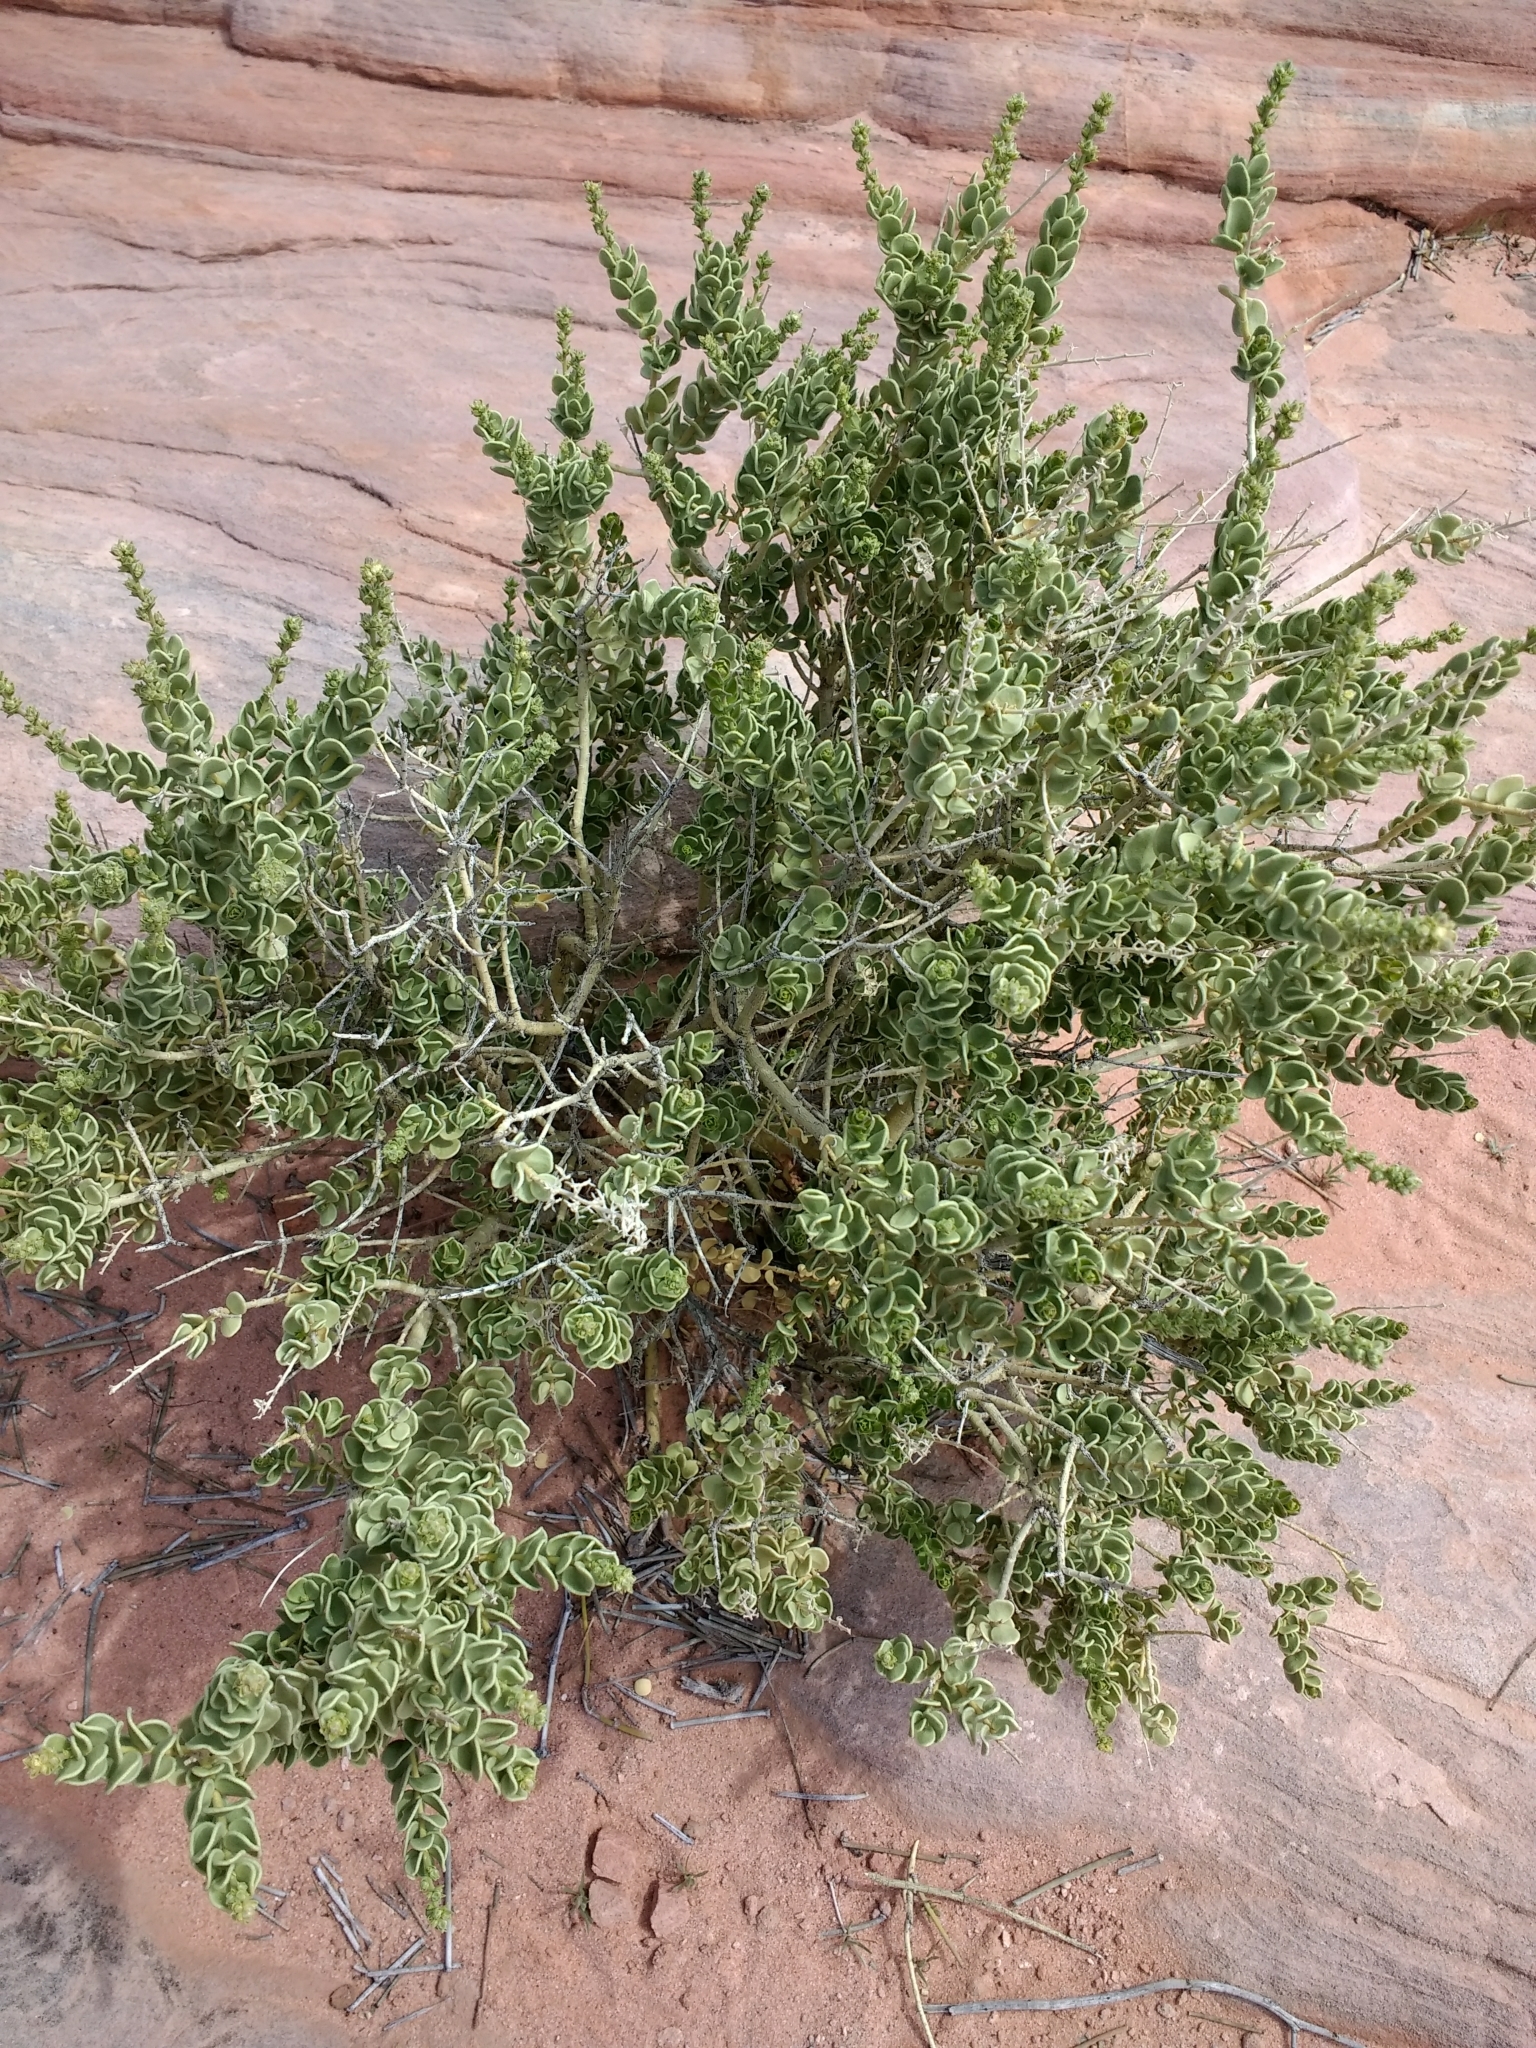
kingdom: Plantae
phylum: Tracheophyta
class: Magnoliopsida
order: Celastrales
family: Celastraceae
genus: Mortonia
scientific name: Mortonia utahensis
